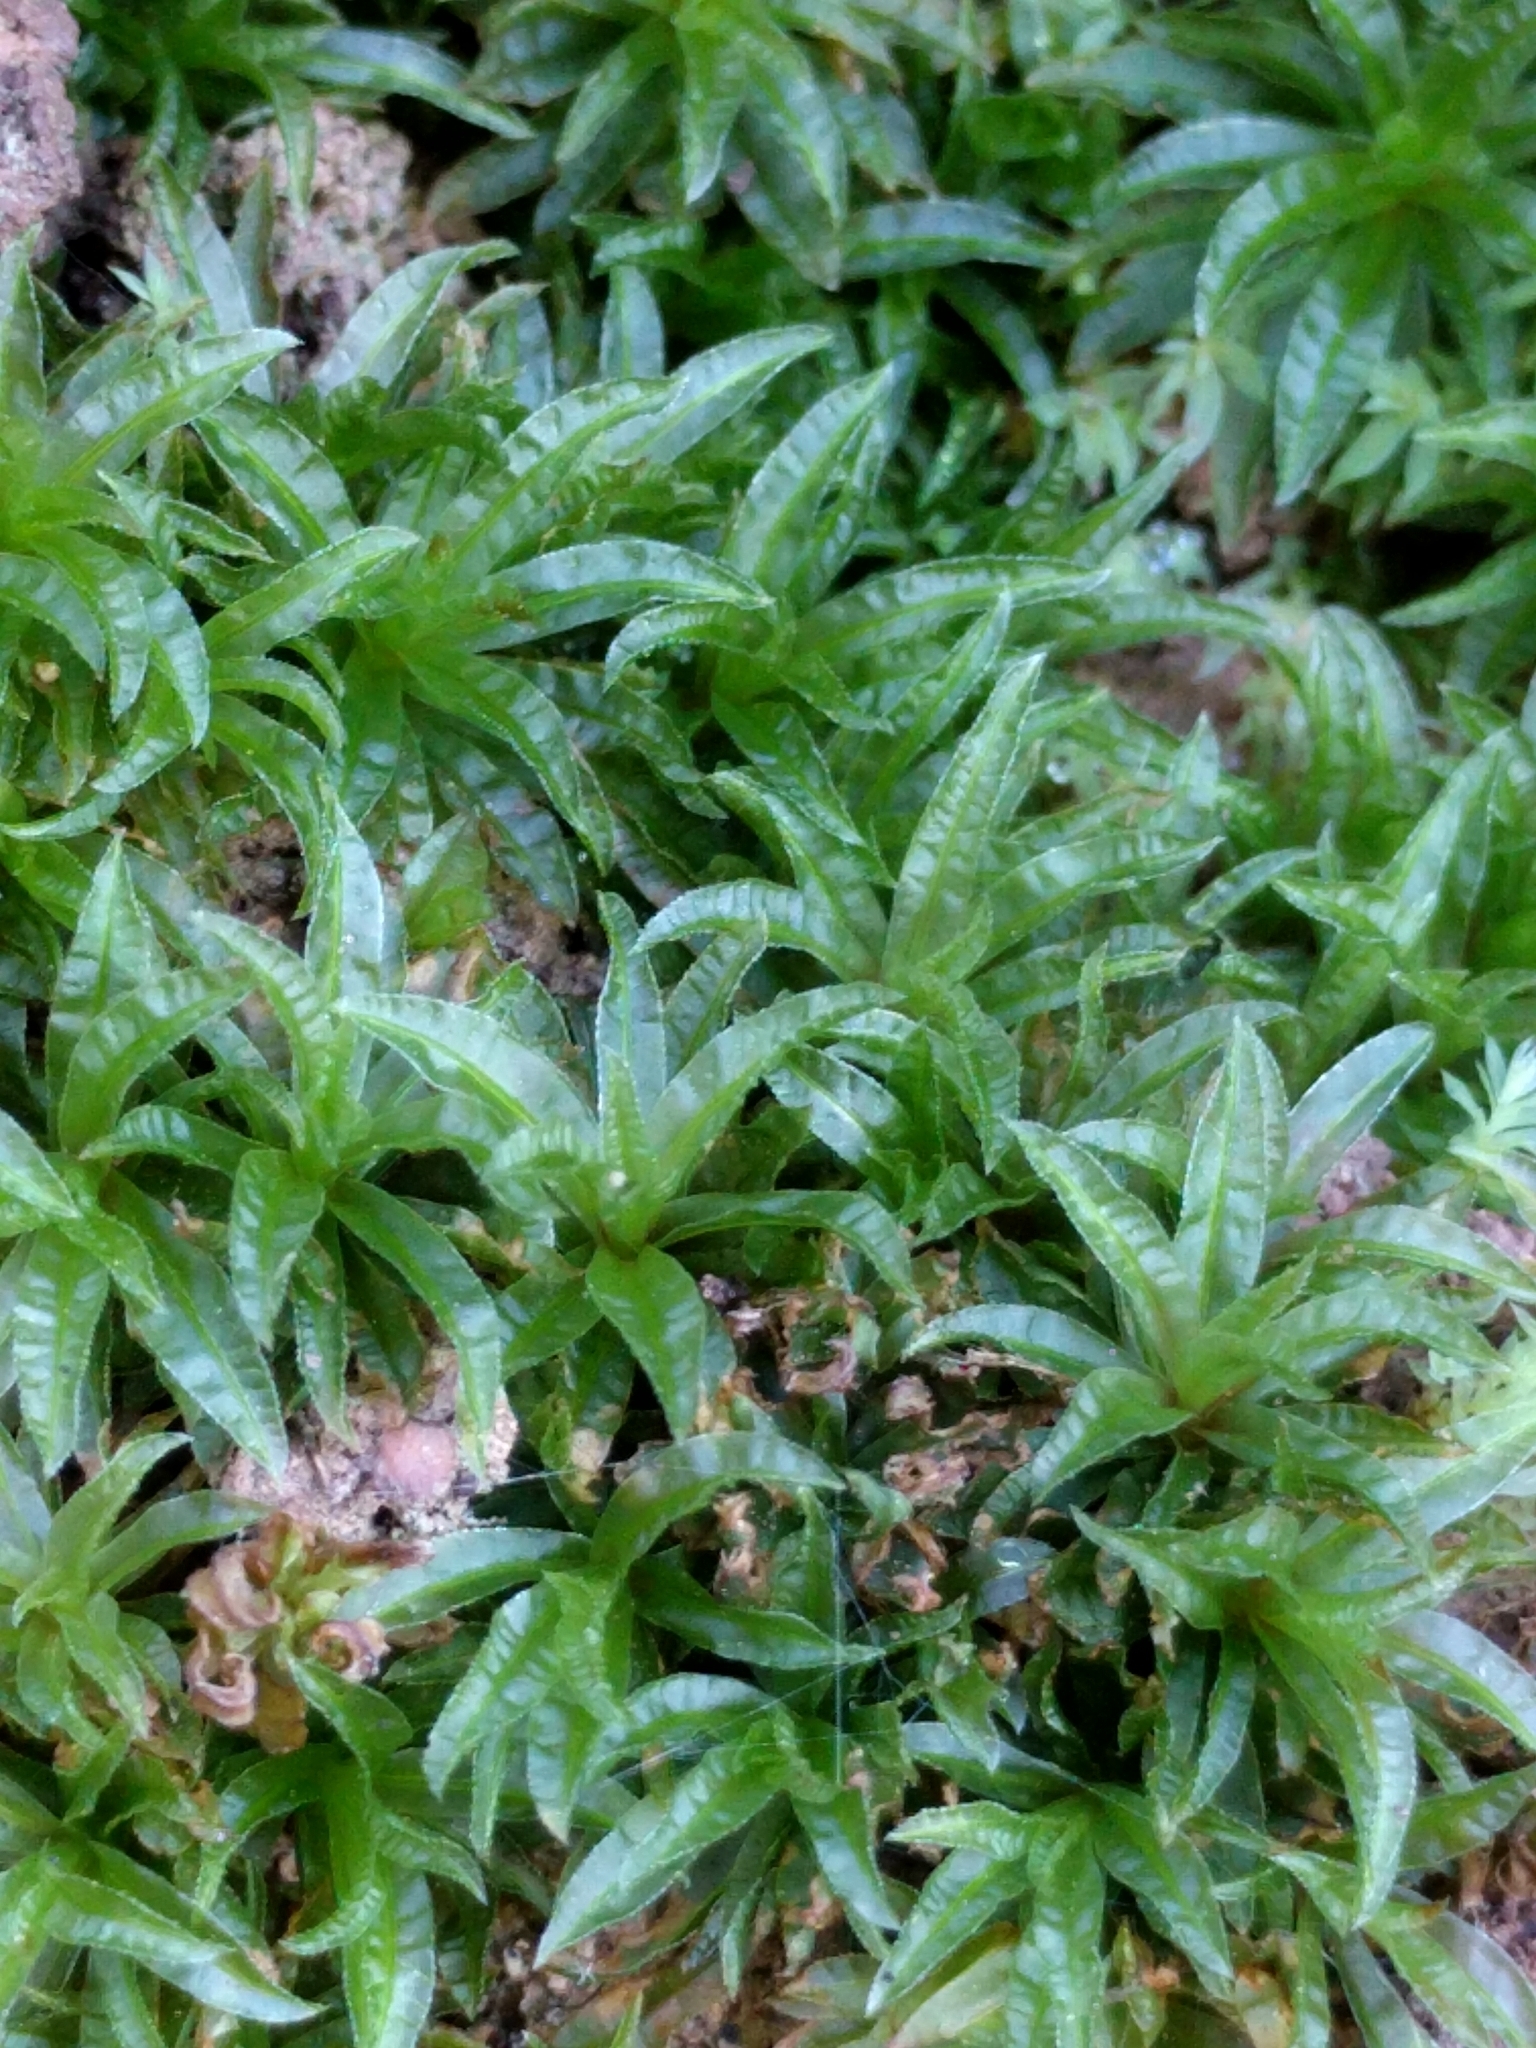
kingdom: Plantae
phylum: Bryophyta
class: Polytrichopsida
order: Polytrichales
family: Polytrichaceae
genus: Atrichum
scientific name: Atrichum selwynii
